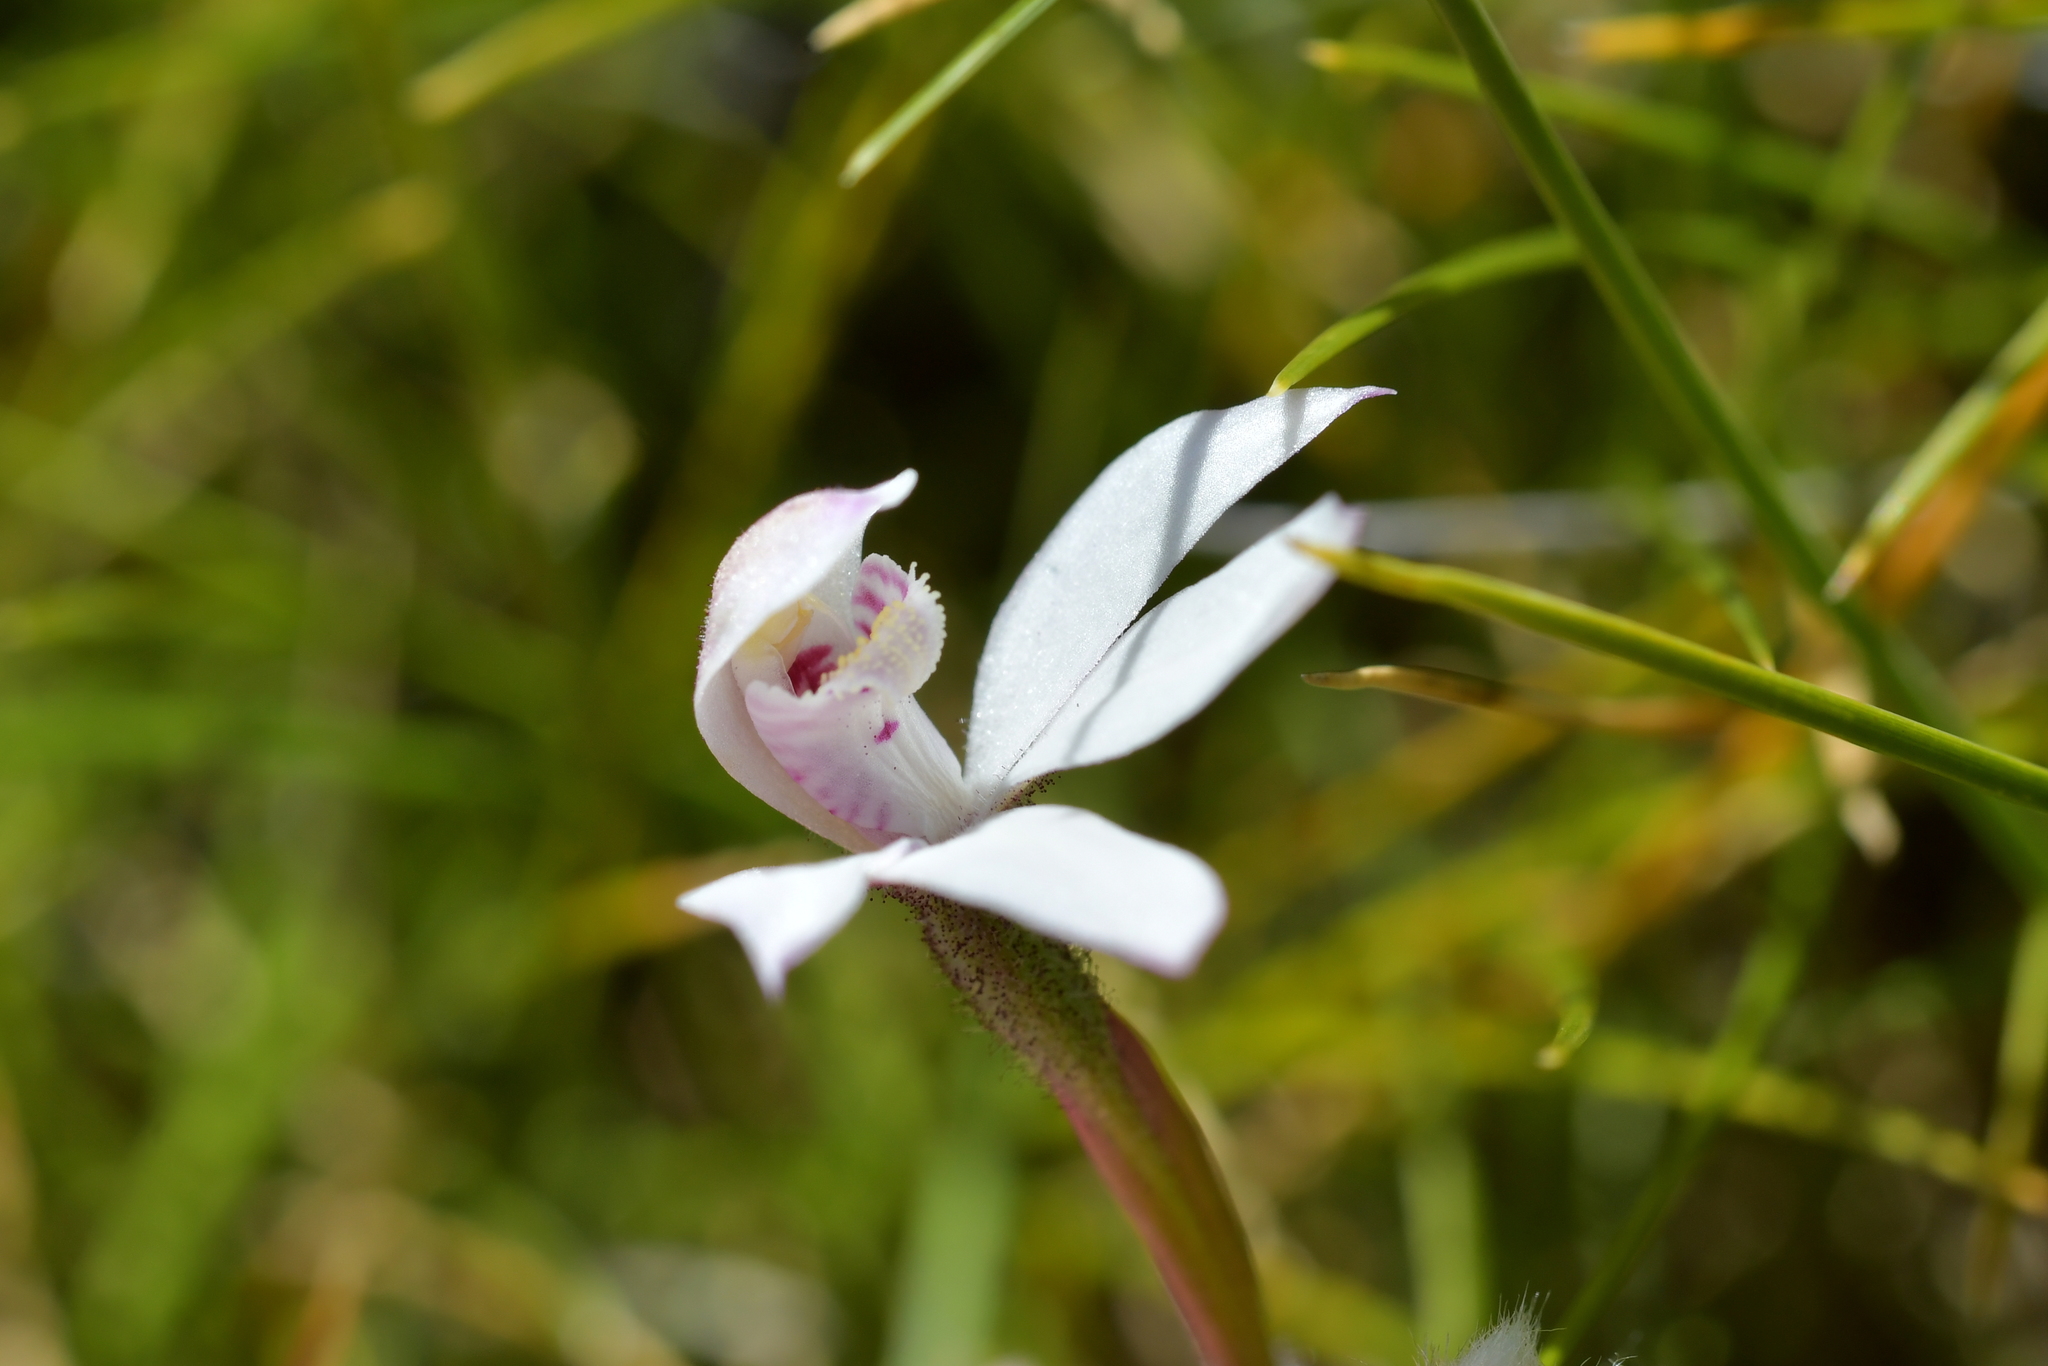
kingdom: Plantae
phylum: Tracheophyta
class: Liliopsida
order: Asparagales
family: Orchidaceae
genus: Caladenia
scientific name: Caladenia lyallii
